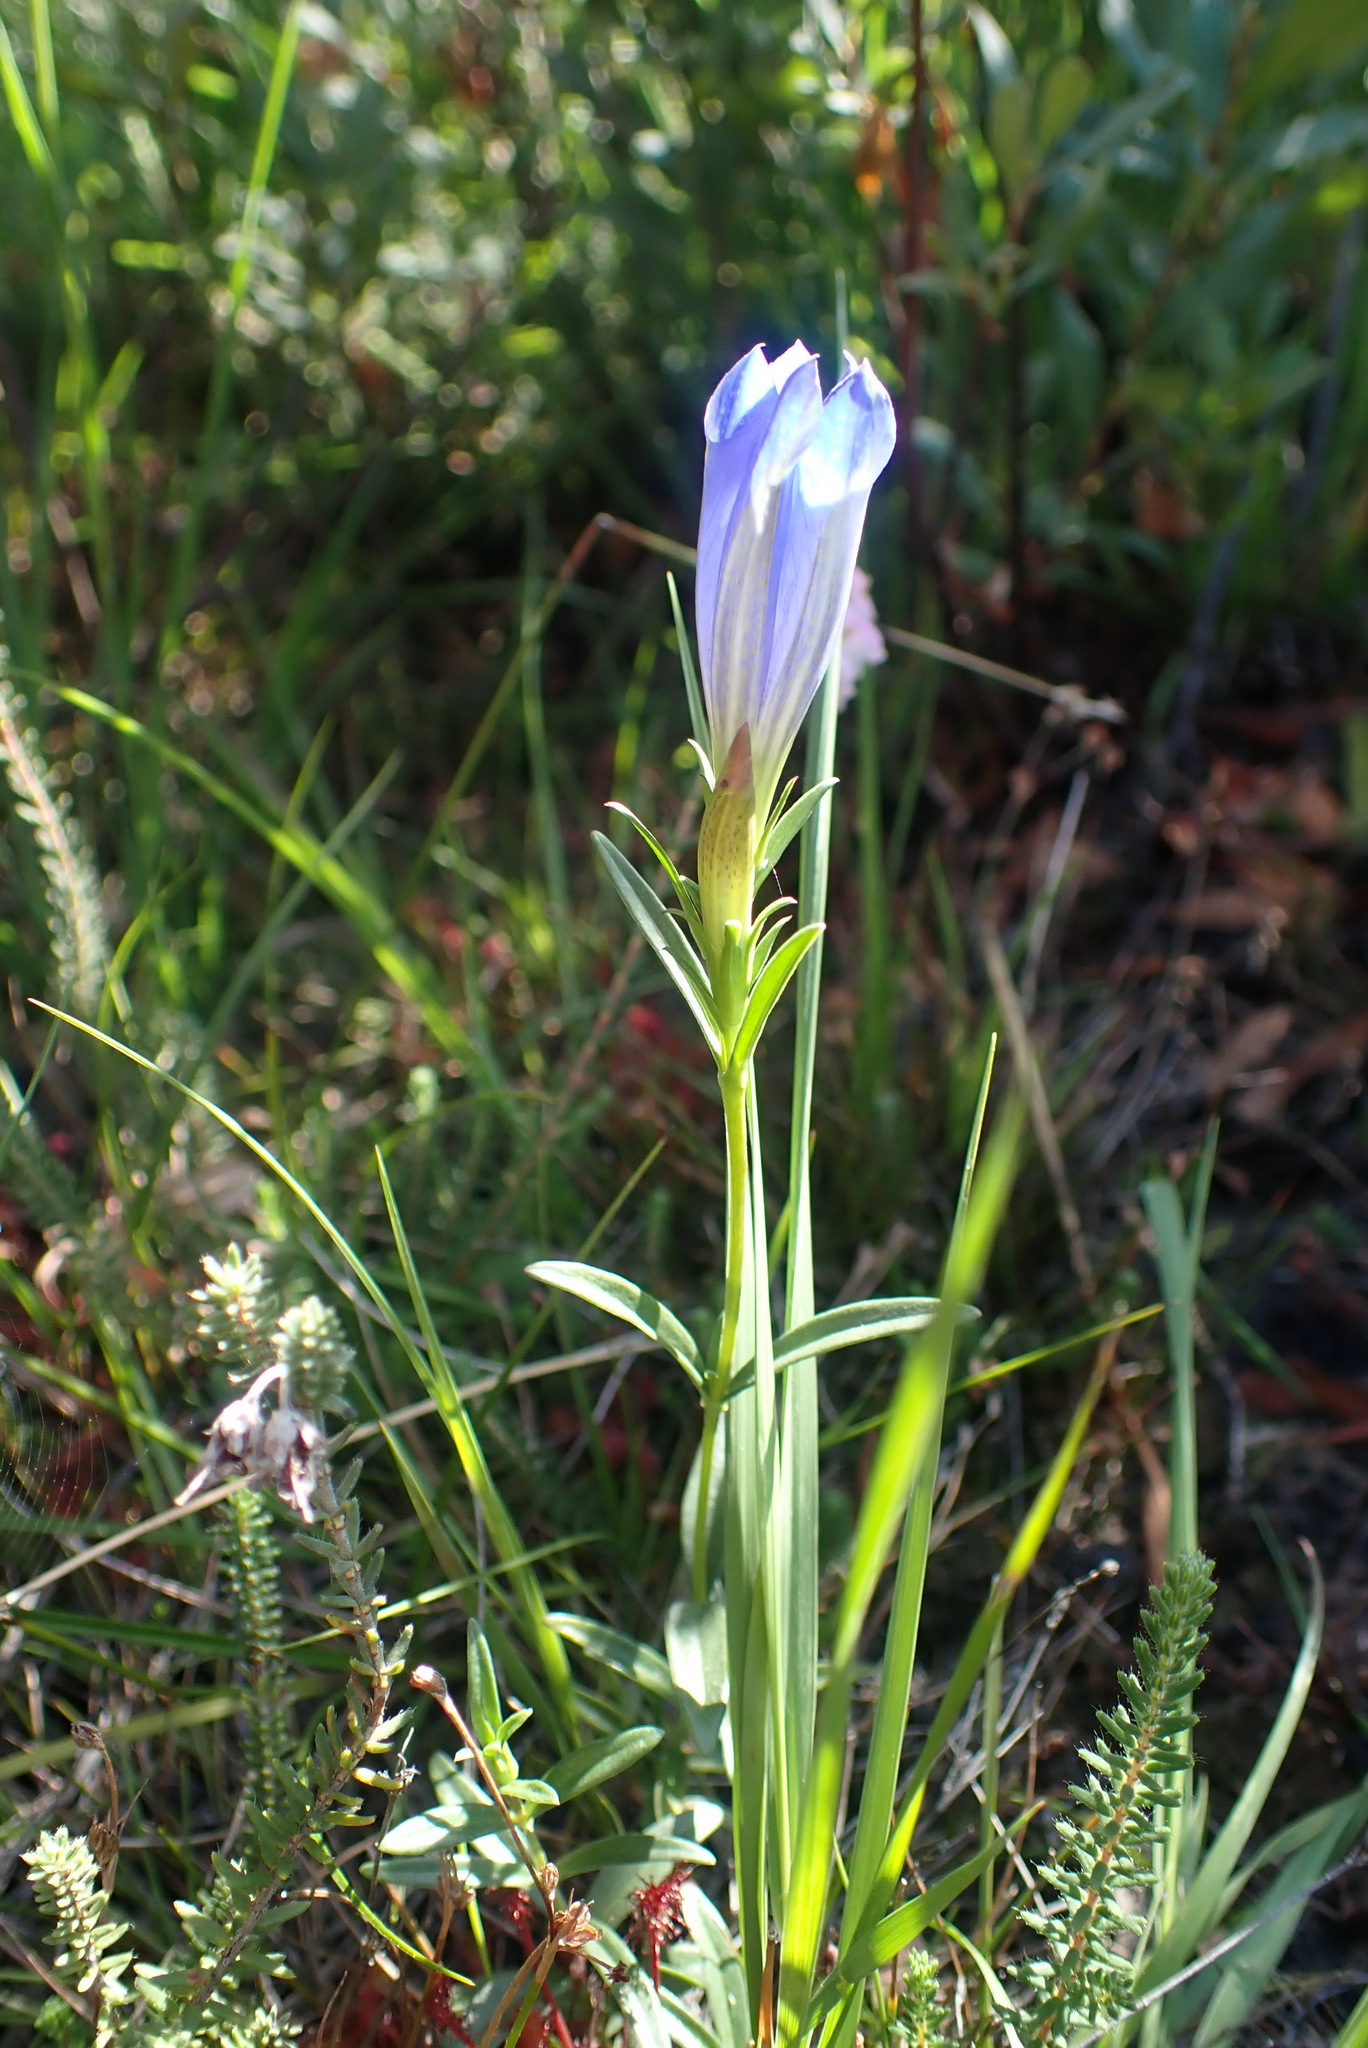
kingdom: Plantae
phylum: Tracheophyta
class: Magnoliopsida
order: Gentianales
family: Gentianaceae
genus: Gentiana
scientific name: Gentiana pneumonanthe
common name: Marsh gentian
